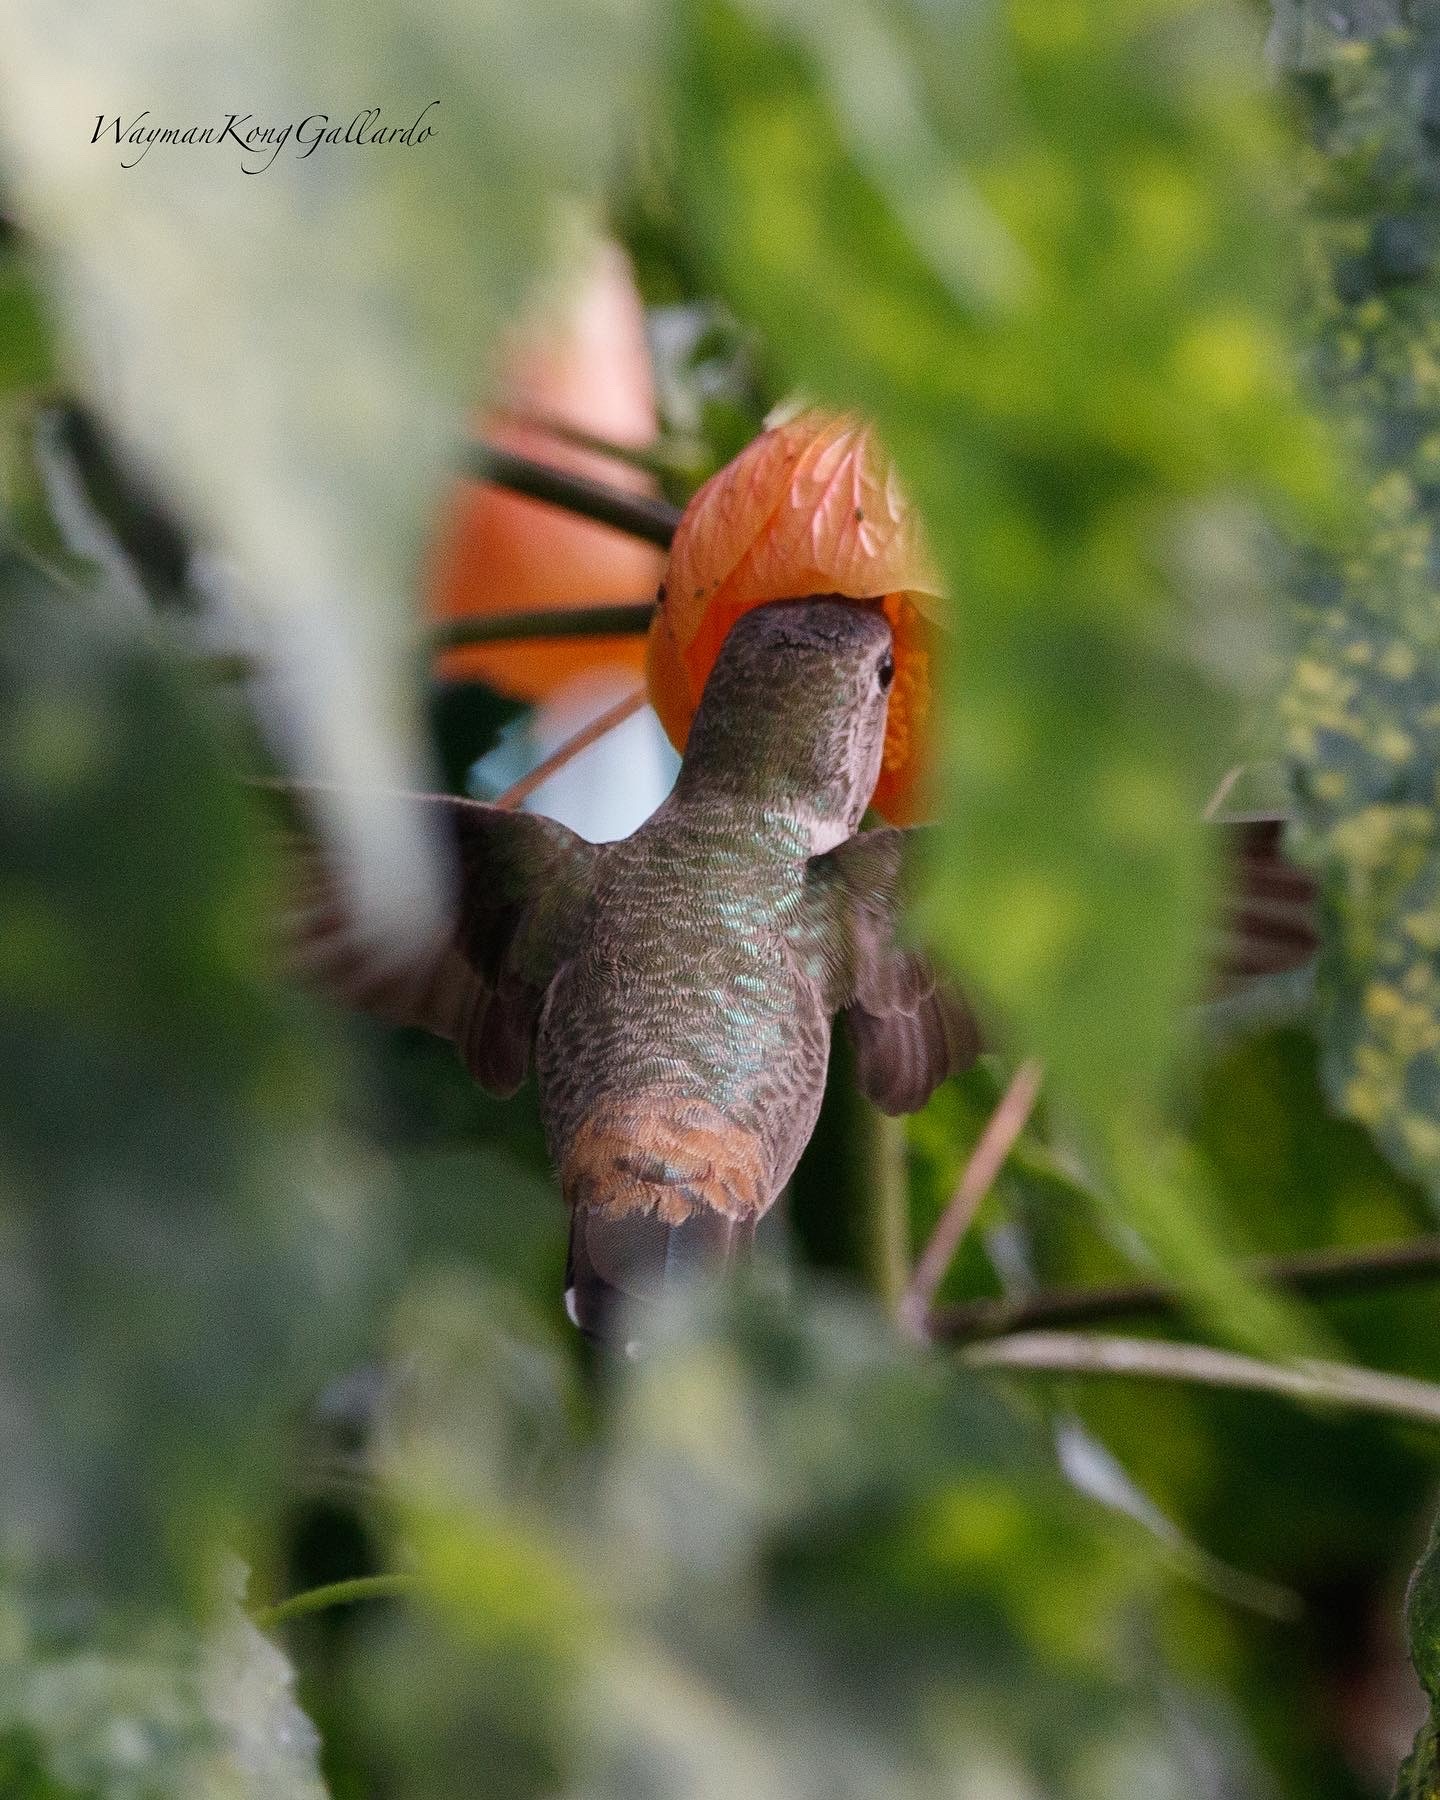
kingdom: Animalia
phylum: Chordata
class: Aves
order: Apodiformes
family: Trochilidae
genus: Rhodopis
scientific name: Rhodopis vesper
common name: Oasis hummingbird
